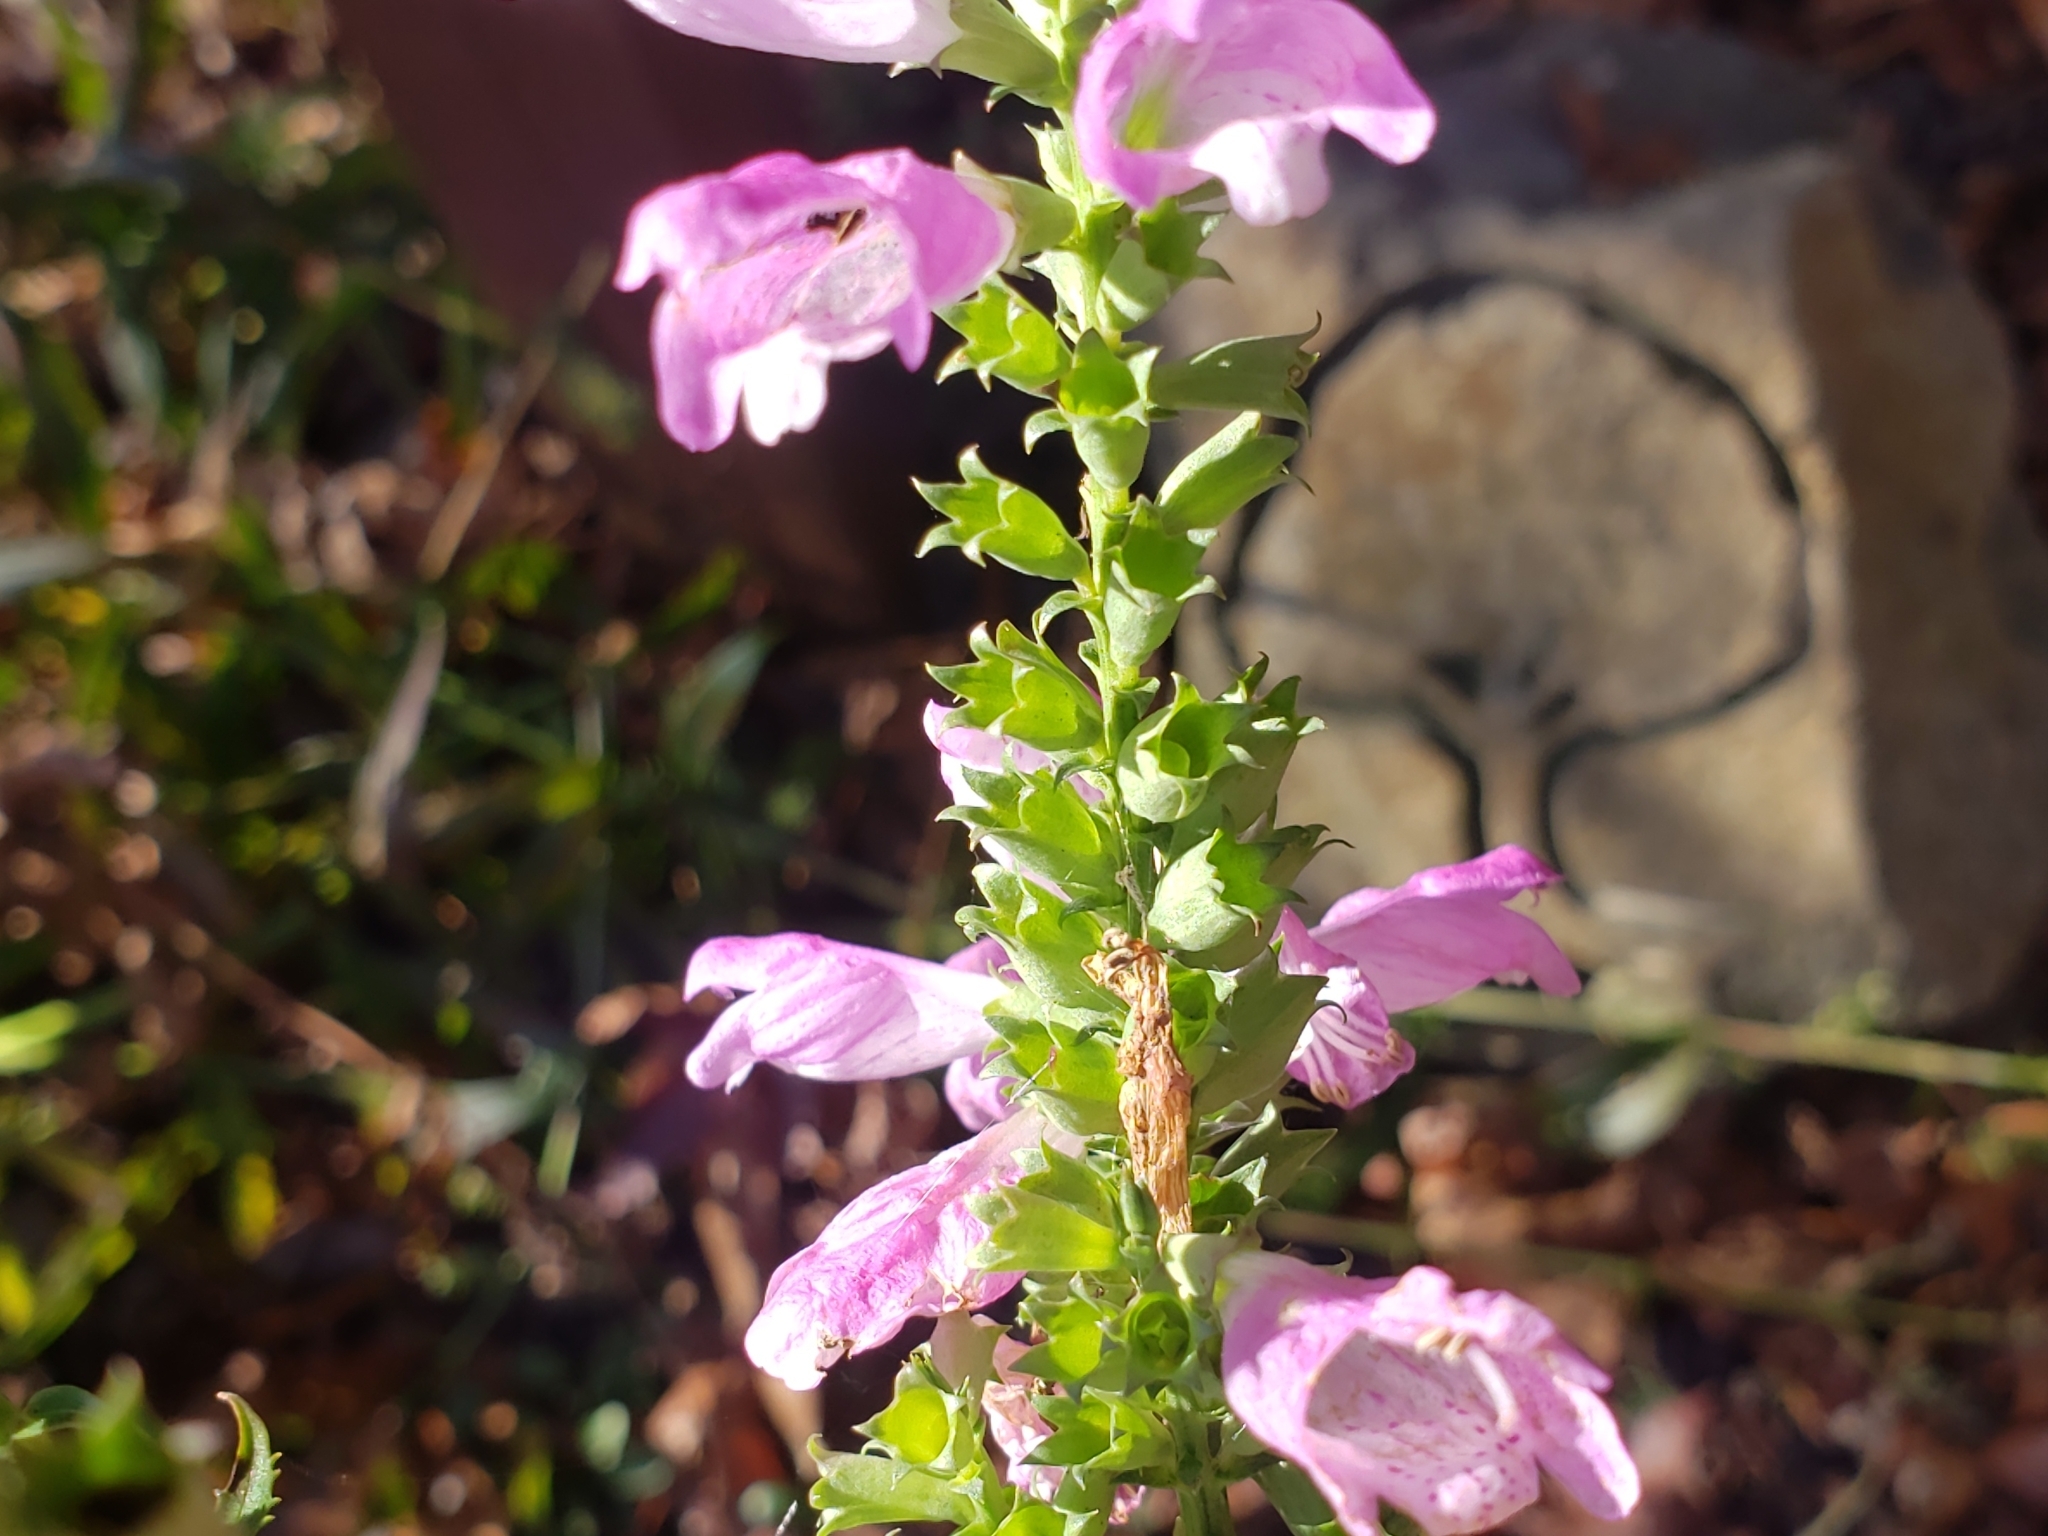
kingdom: Plantae
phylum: Tracheophyta
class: Magnoliopsida
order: Lamiales
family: Lamiaceae
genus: Physostegia
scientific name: Physostegia virginiana
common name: Obedient-plant
